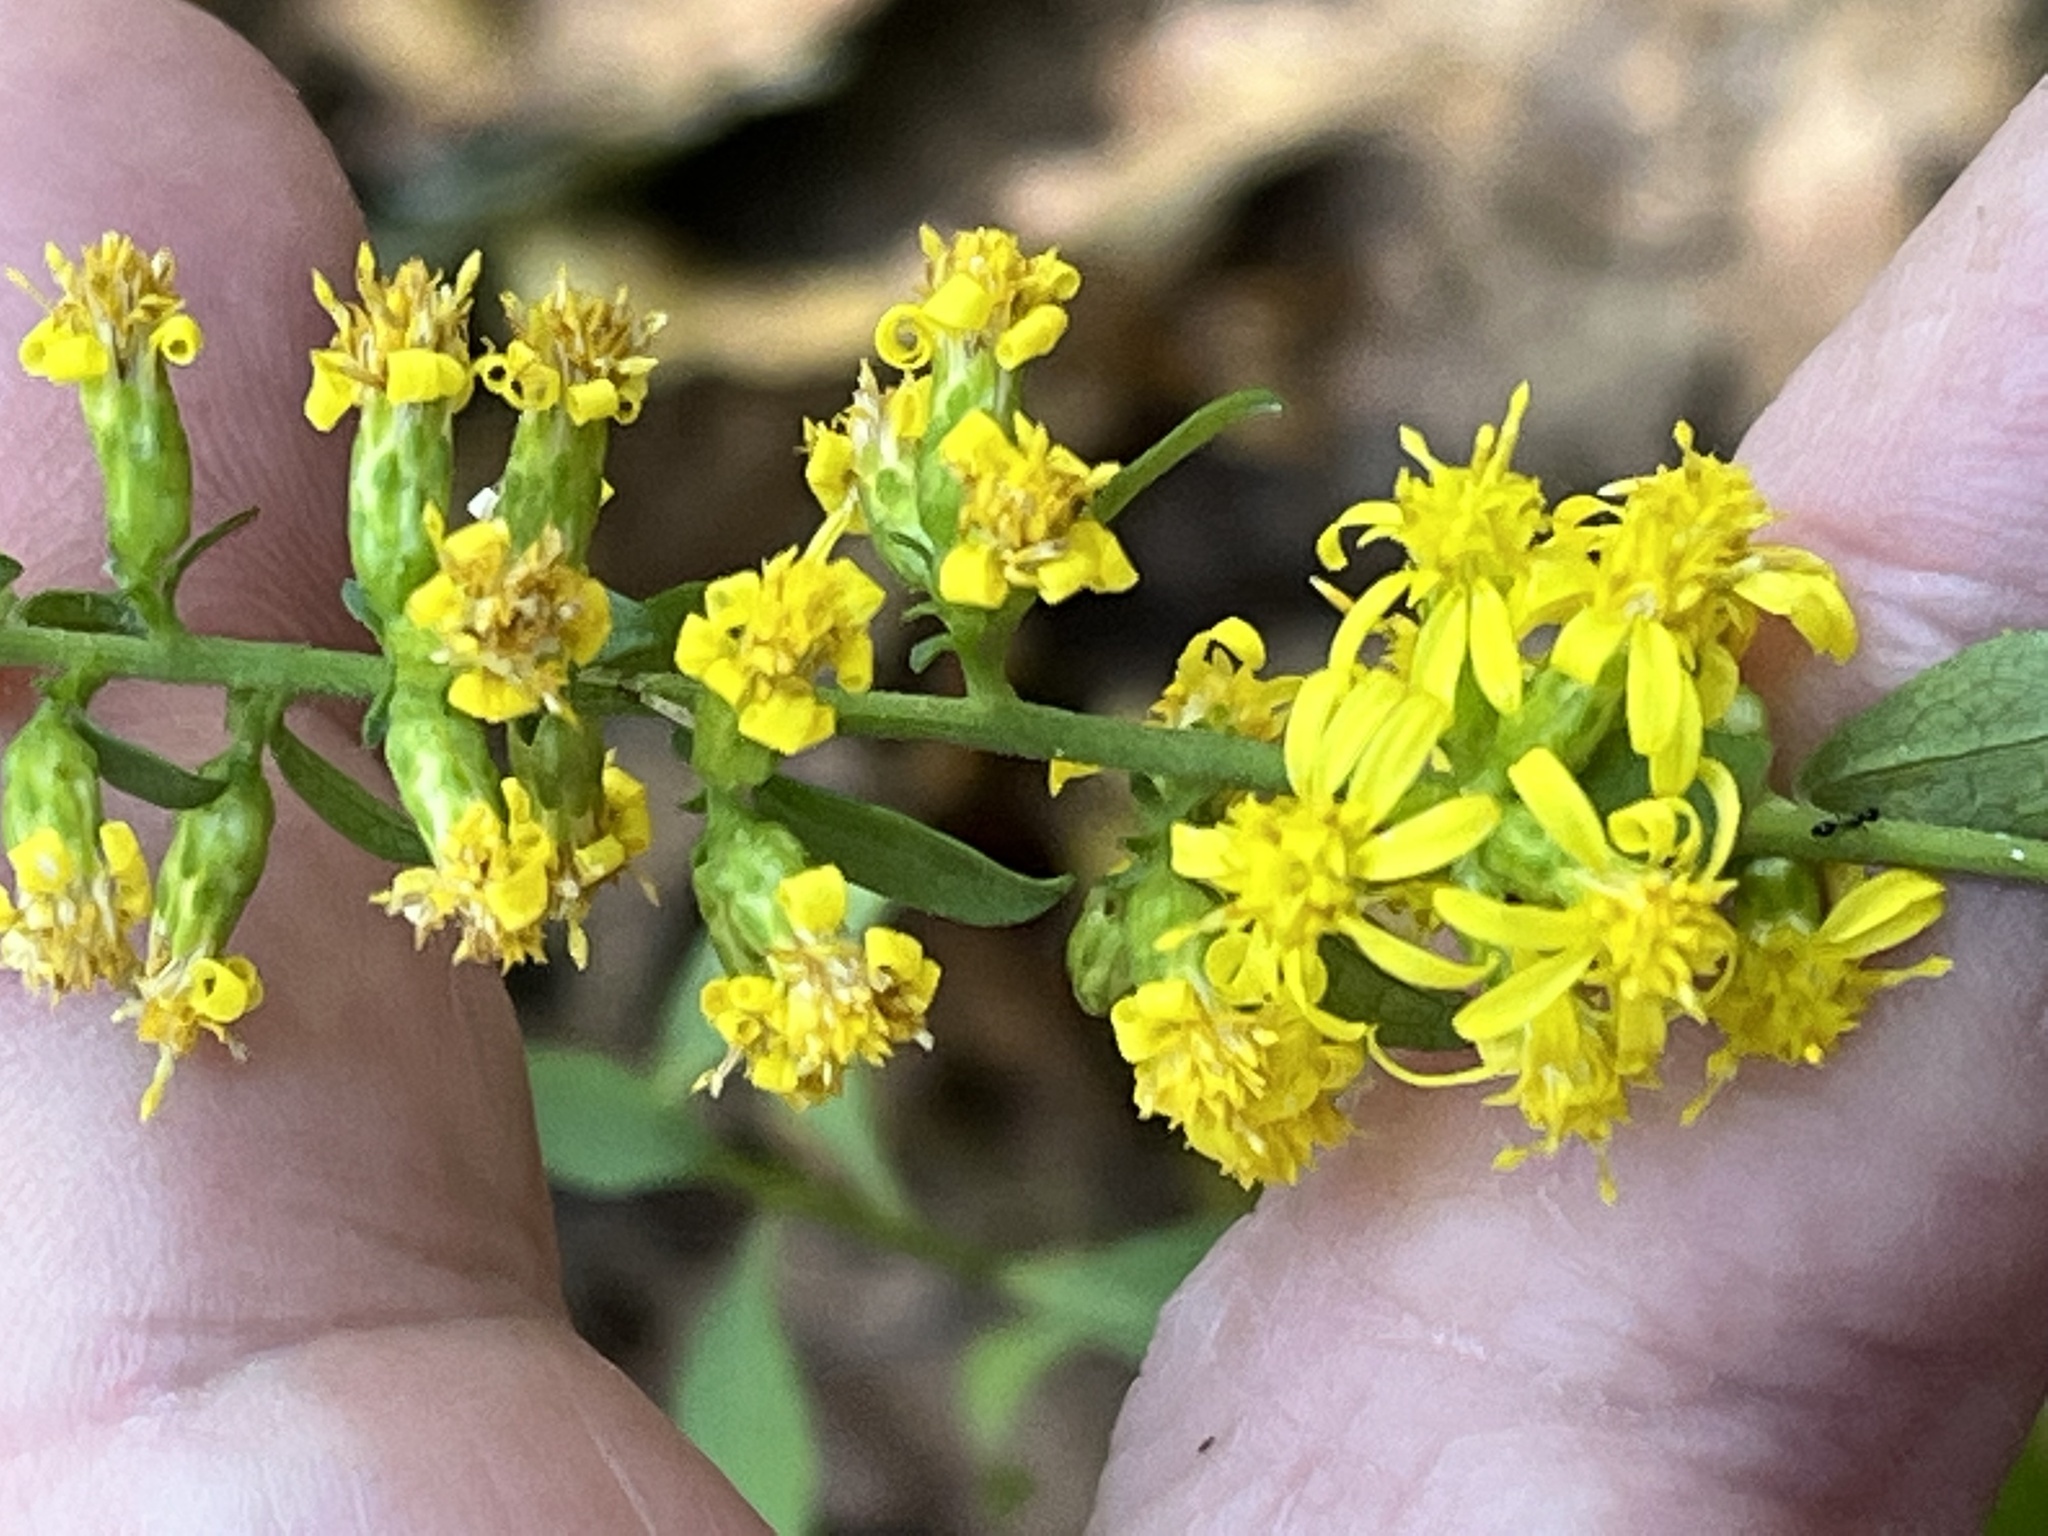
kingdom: Plantae
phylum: Tracheophyta
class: Magnoliopsida
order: Asterales
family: Asteraceae
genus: Solidago
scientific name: Solidago erecta
